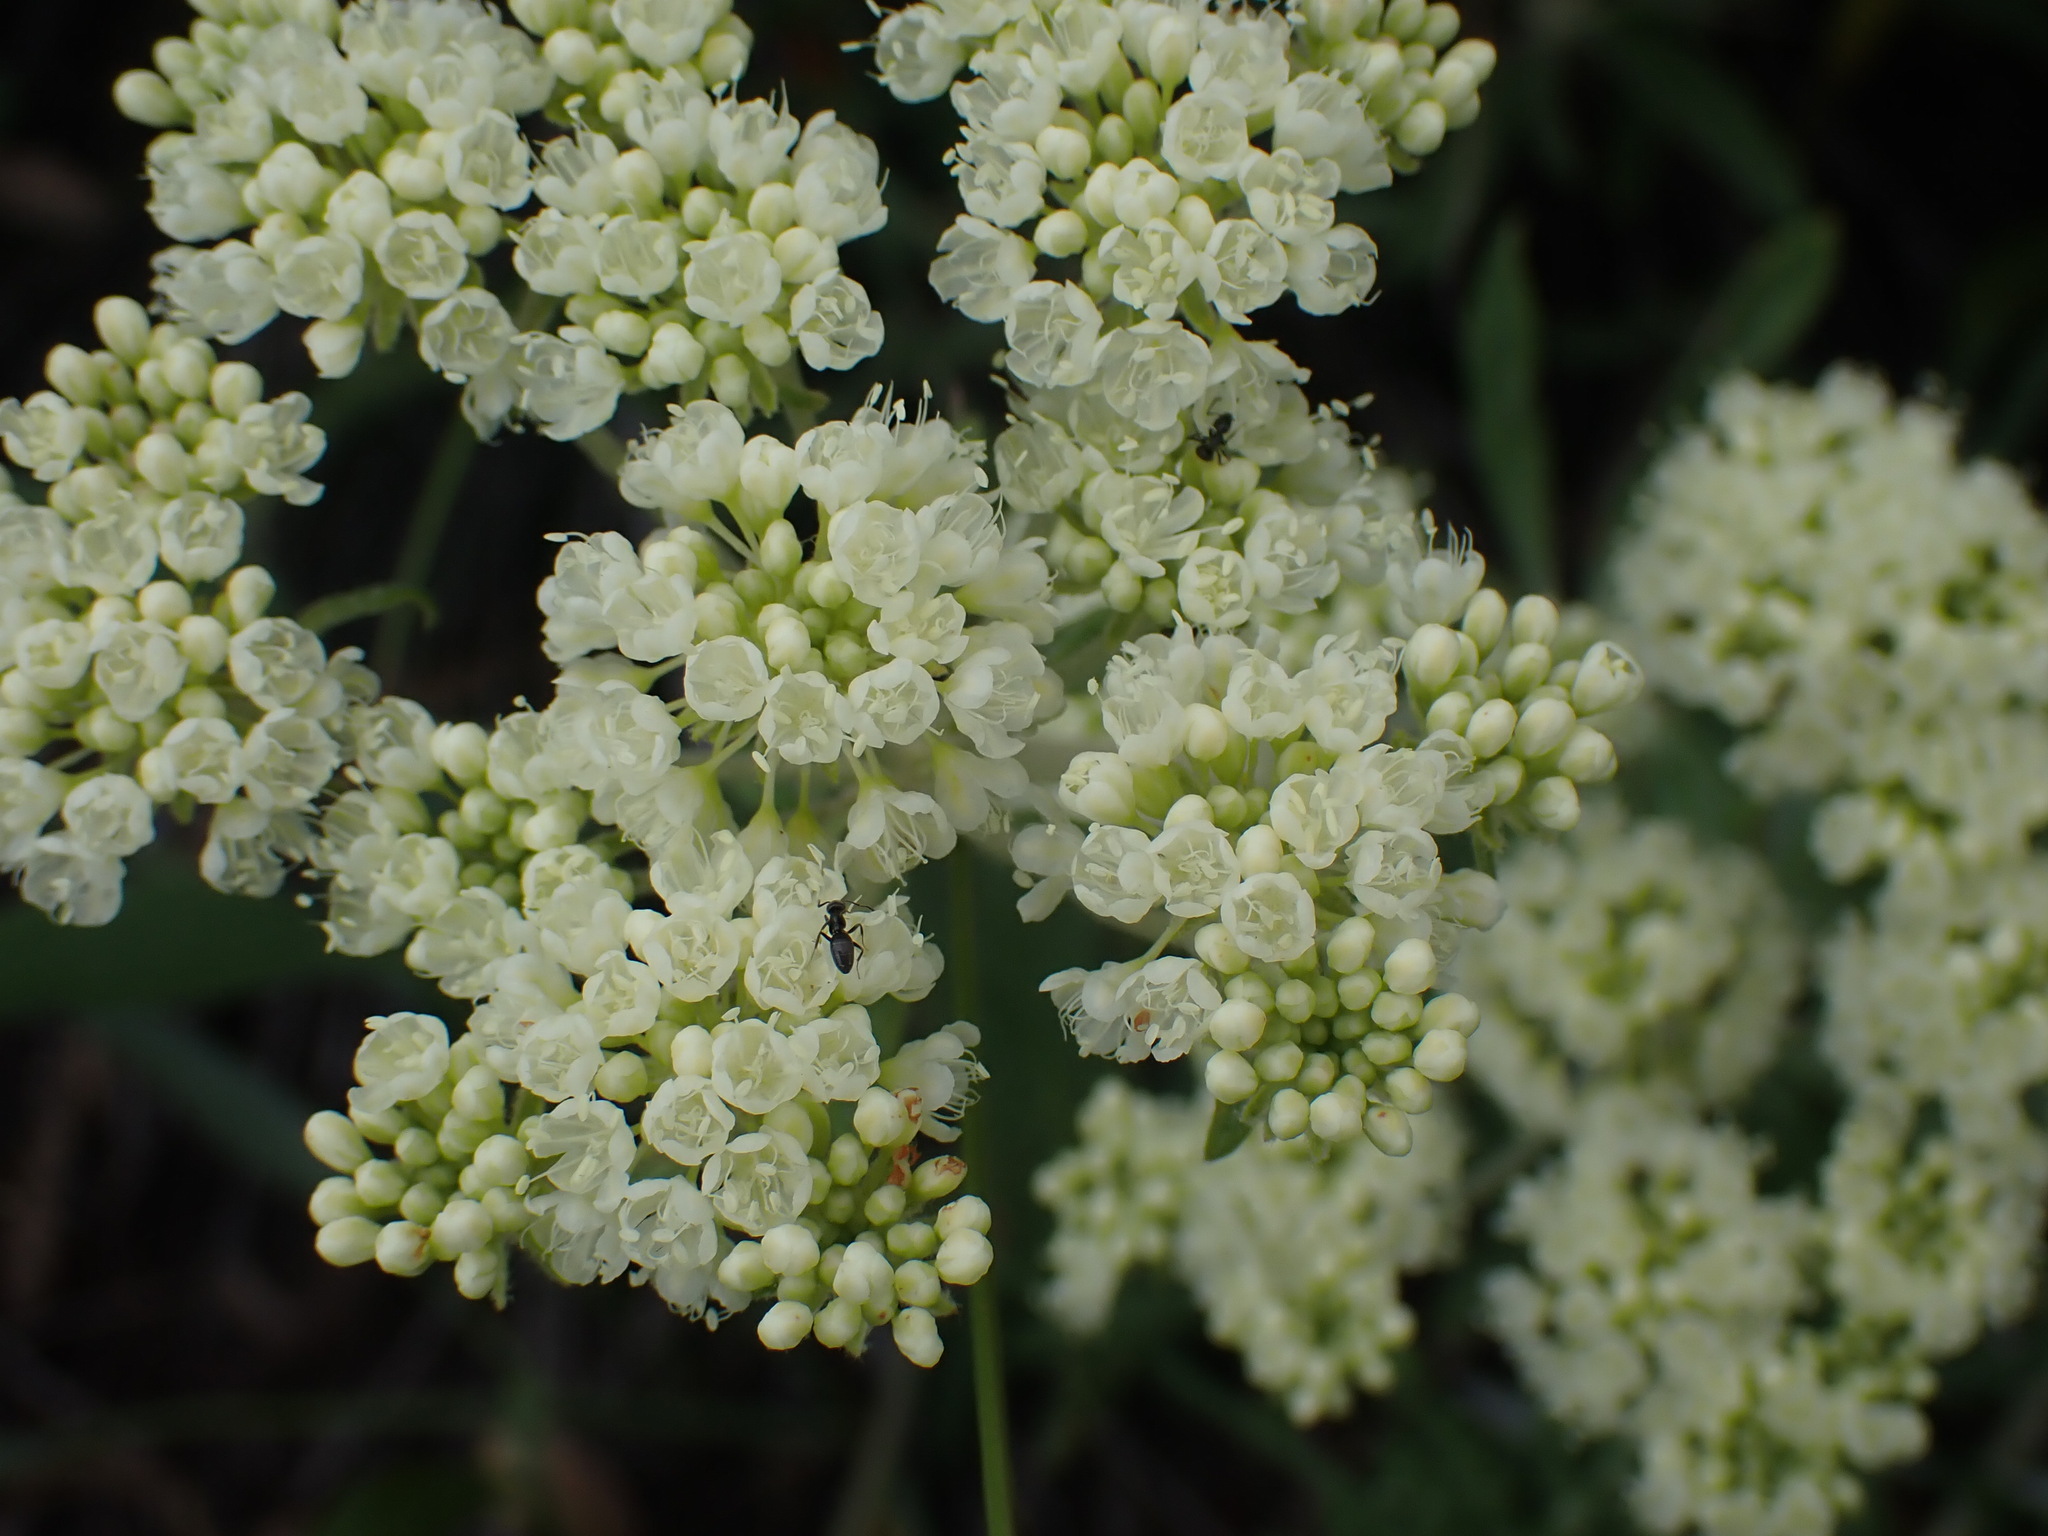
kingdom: Plantae
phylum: Tracheophyta
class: Magnoliopsida
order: Caryophyllales
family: Polygonaceae
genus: Eriogonum
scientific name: Eriogonum heracleoides
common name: Wyeth's buckwheat
